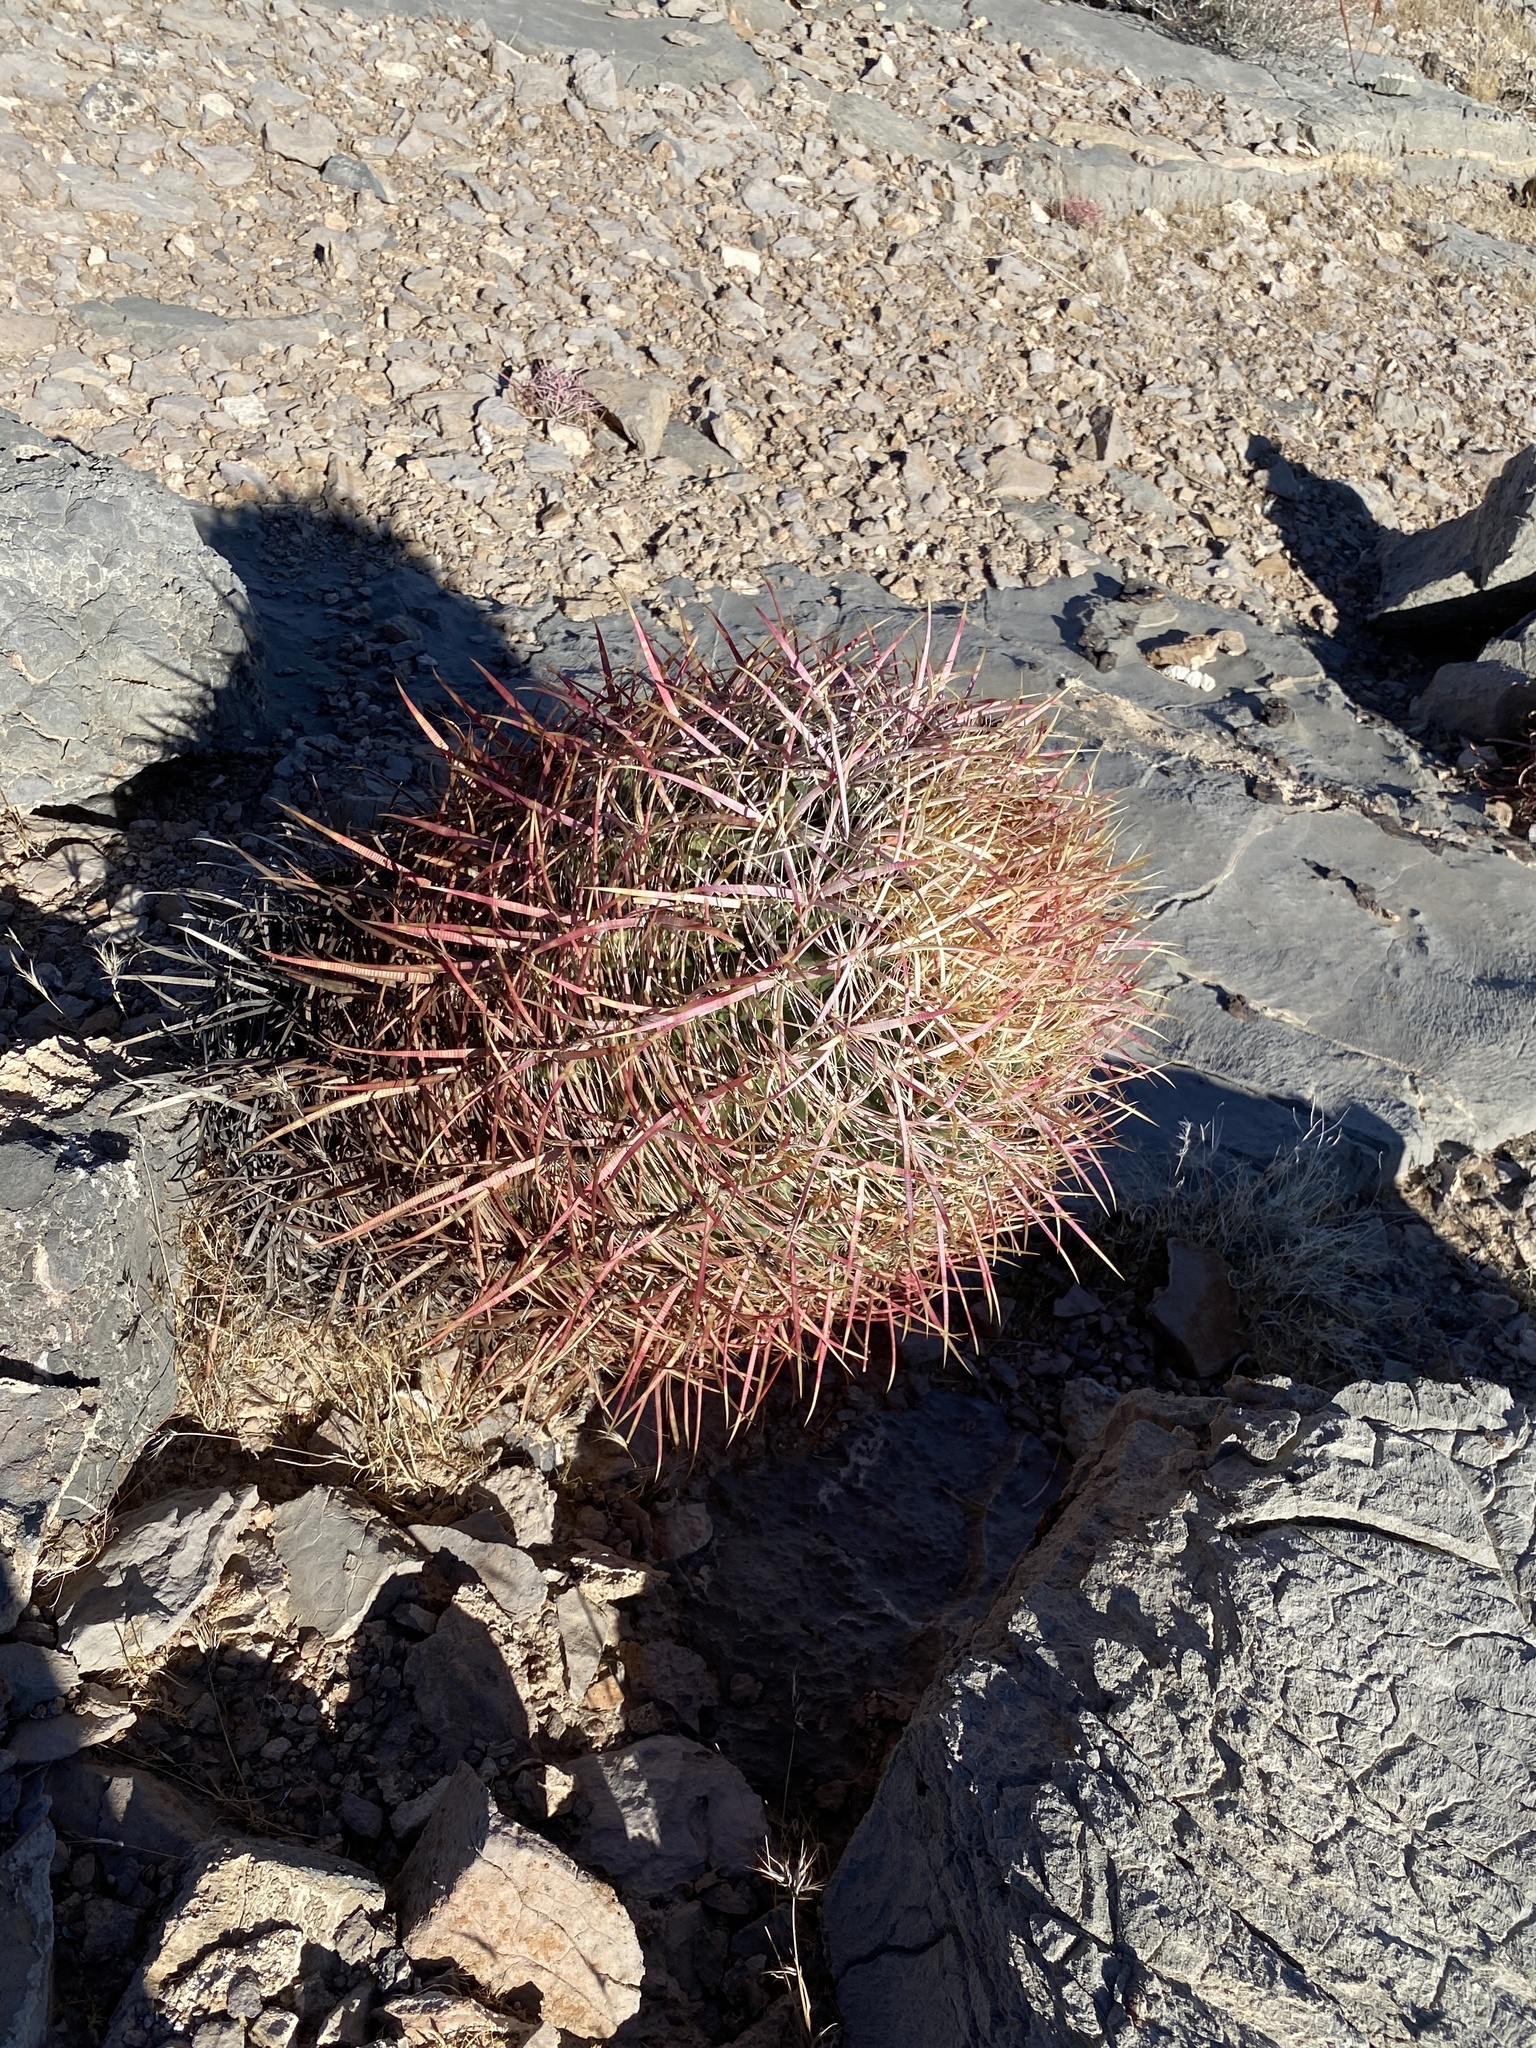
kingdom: Plantae
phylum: Tracheophyta
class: Magnoliopsida
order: Caryophyllales
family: Cactaceae
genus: Ferocactus
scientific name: Ferocactus cylindraceus
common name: California barrel cactus
